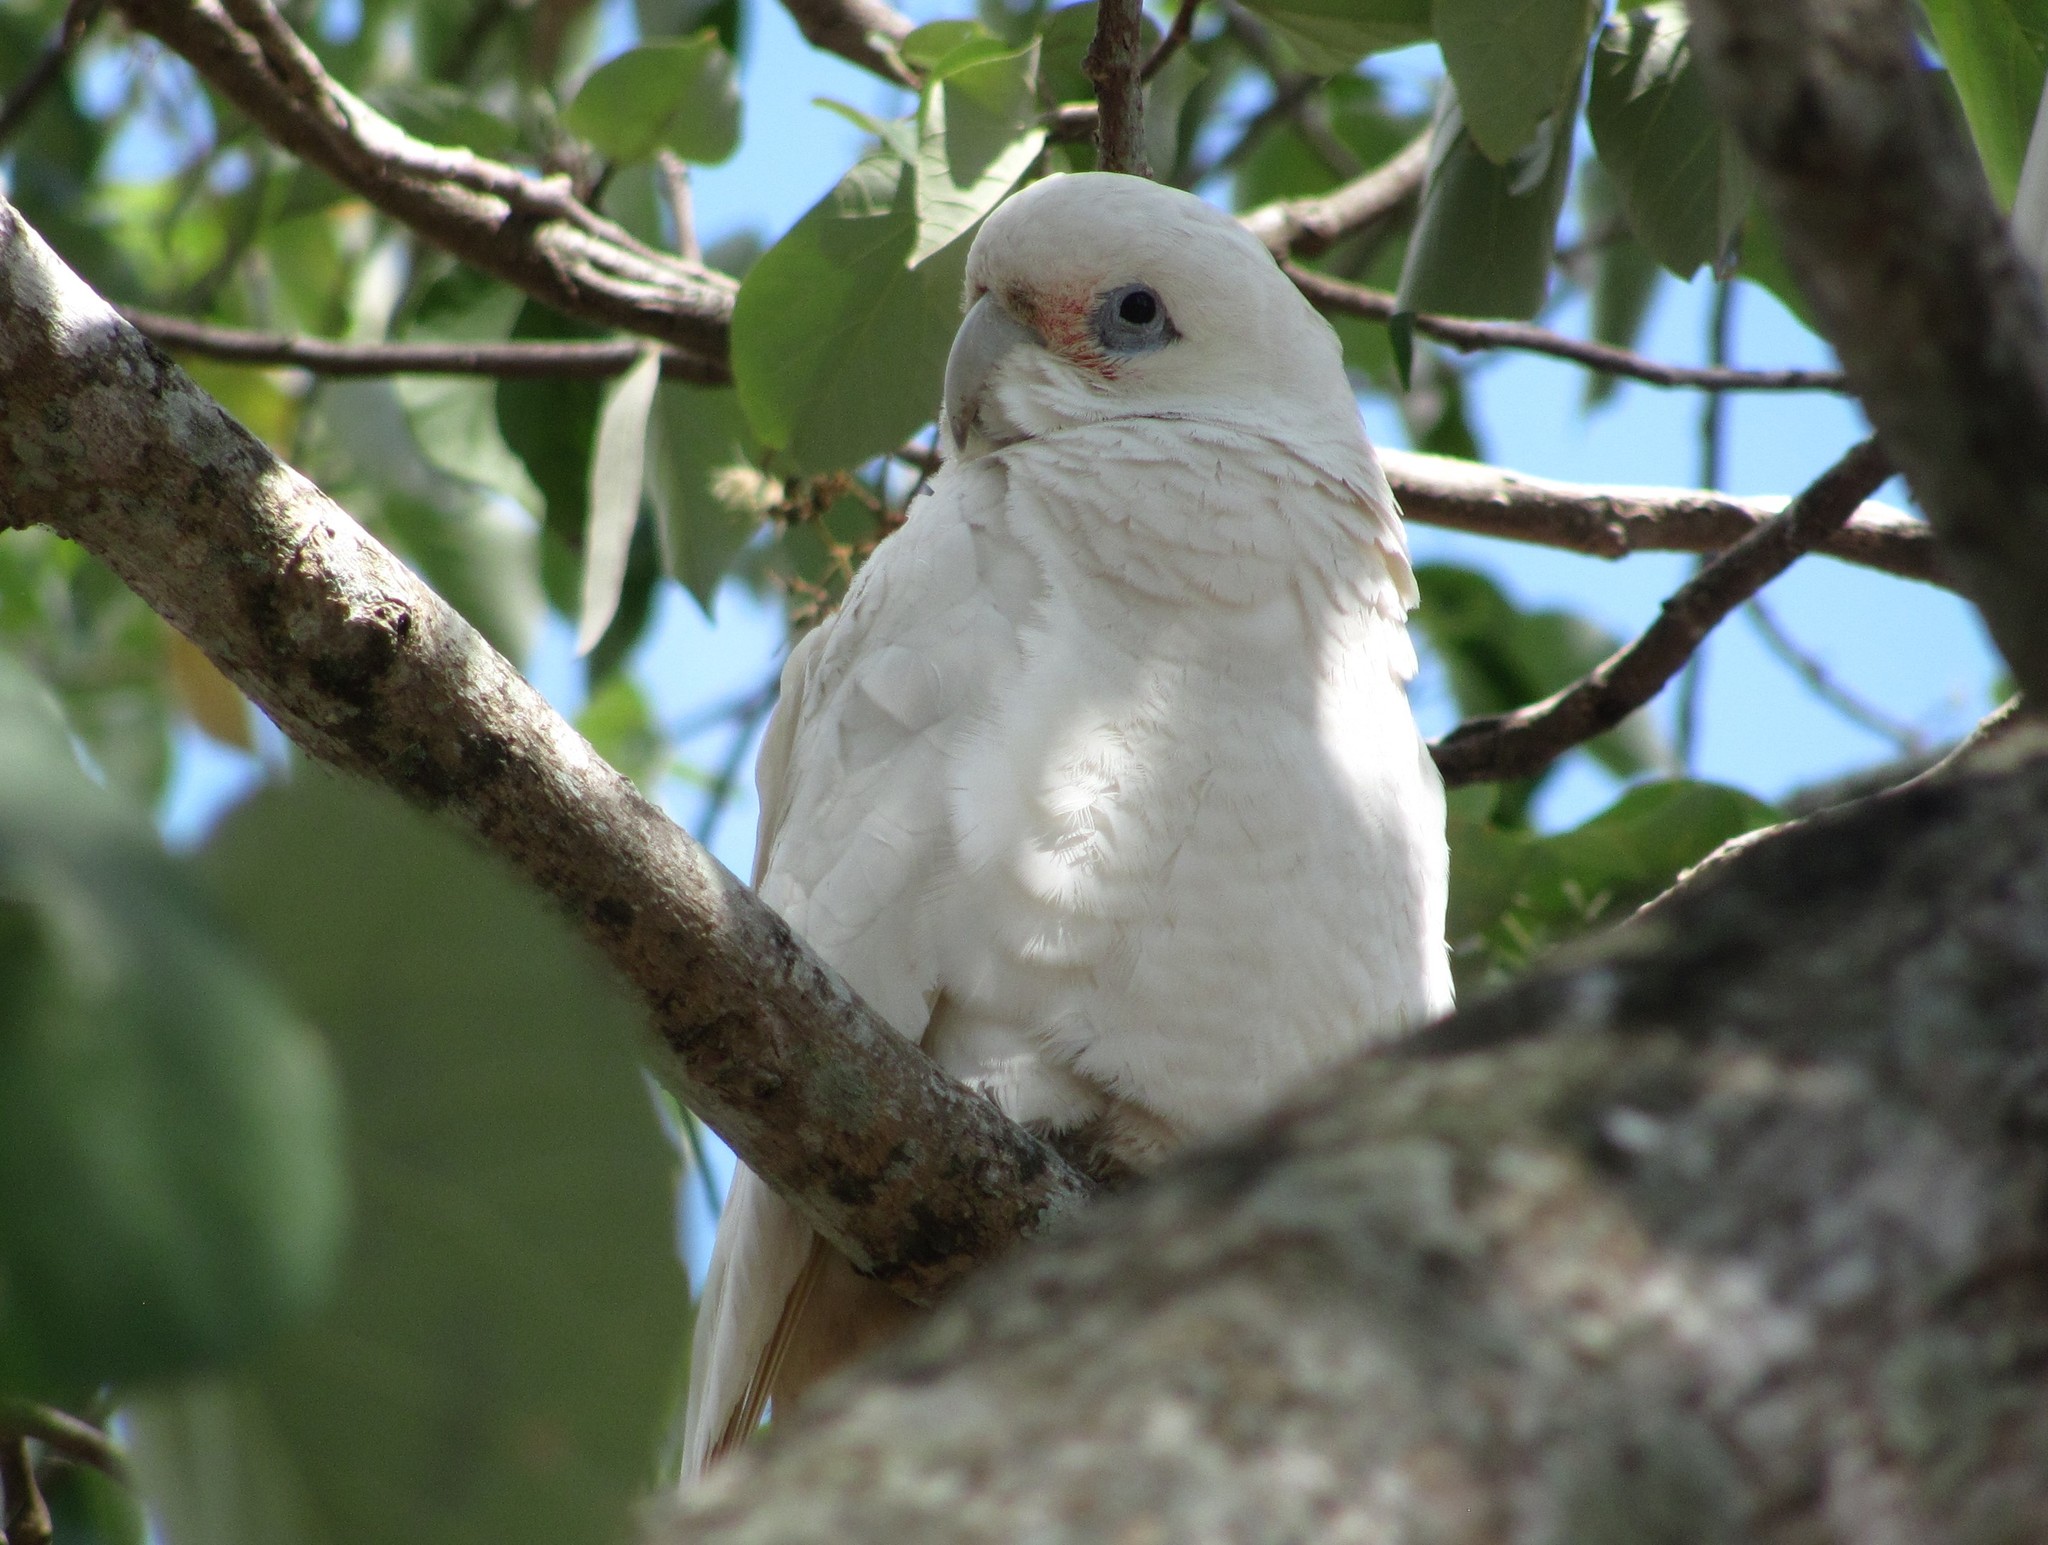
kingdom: Animalia
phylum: Chordata
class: Aves
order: Psittaciformes
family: Psittacidae
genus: Cacatua
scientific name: Cacatua sanguinea
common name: Little corella
